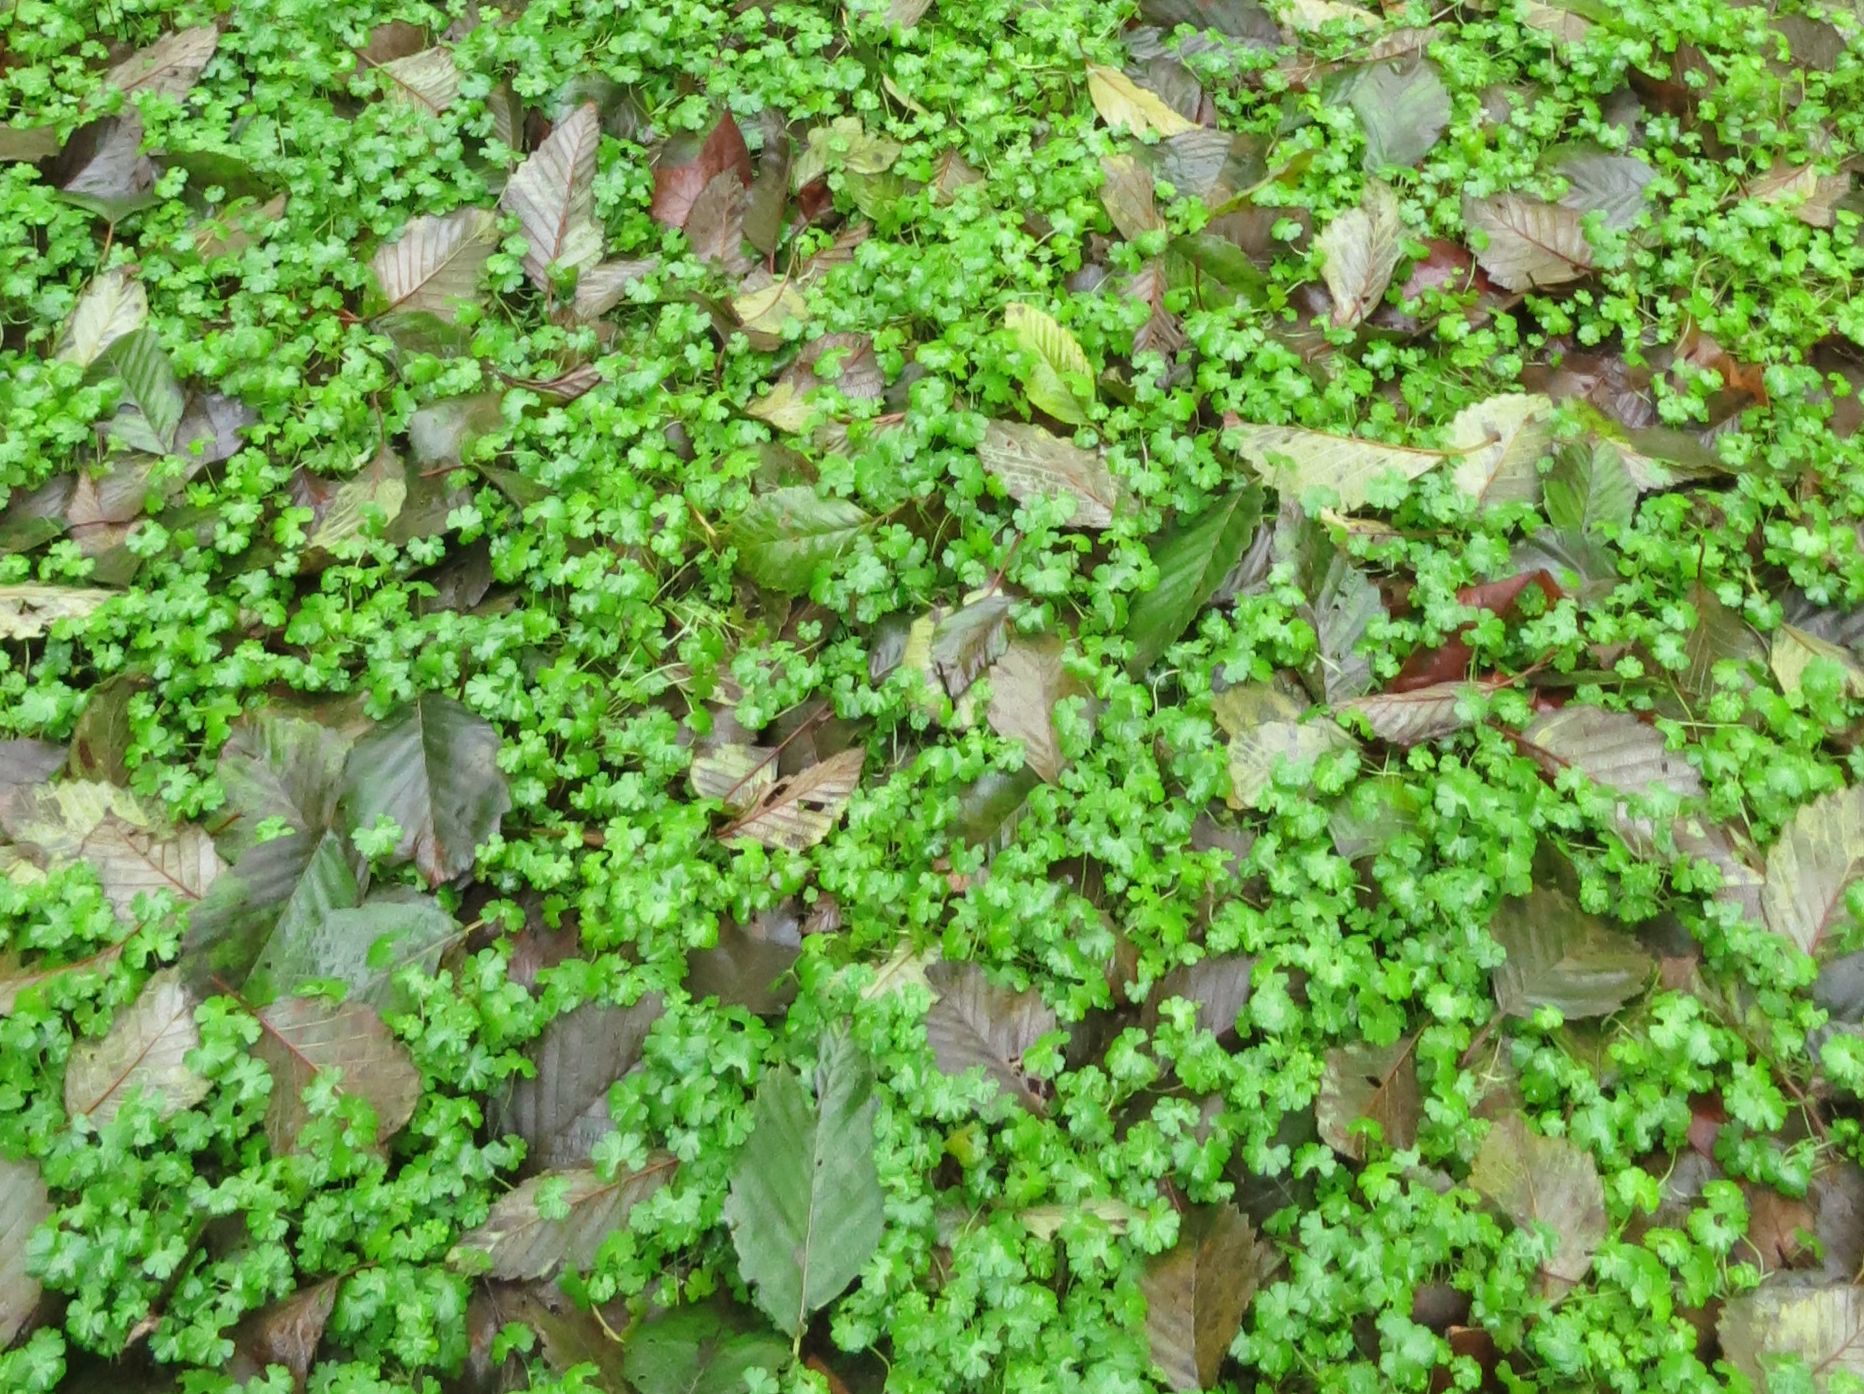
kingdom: Plantae
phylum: Tracheophyta
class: Magnoliopsida
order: Geraniales
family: Geraniaceae
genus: Geranium
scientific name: Geranium lucidum
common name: Shining crane's-bill
